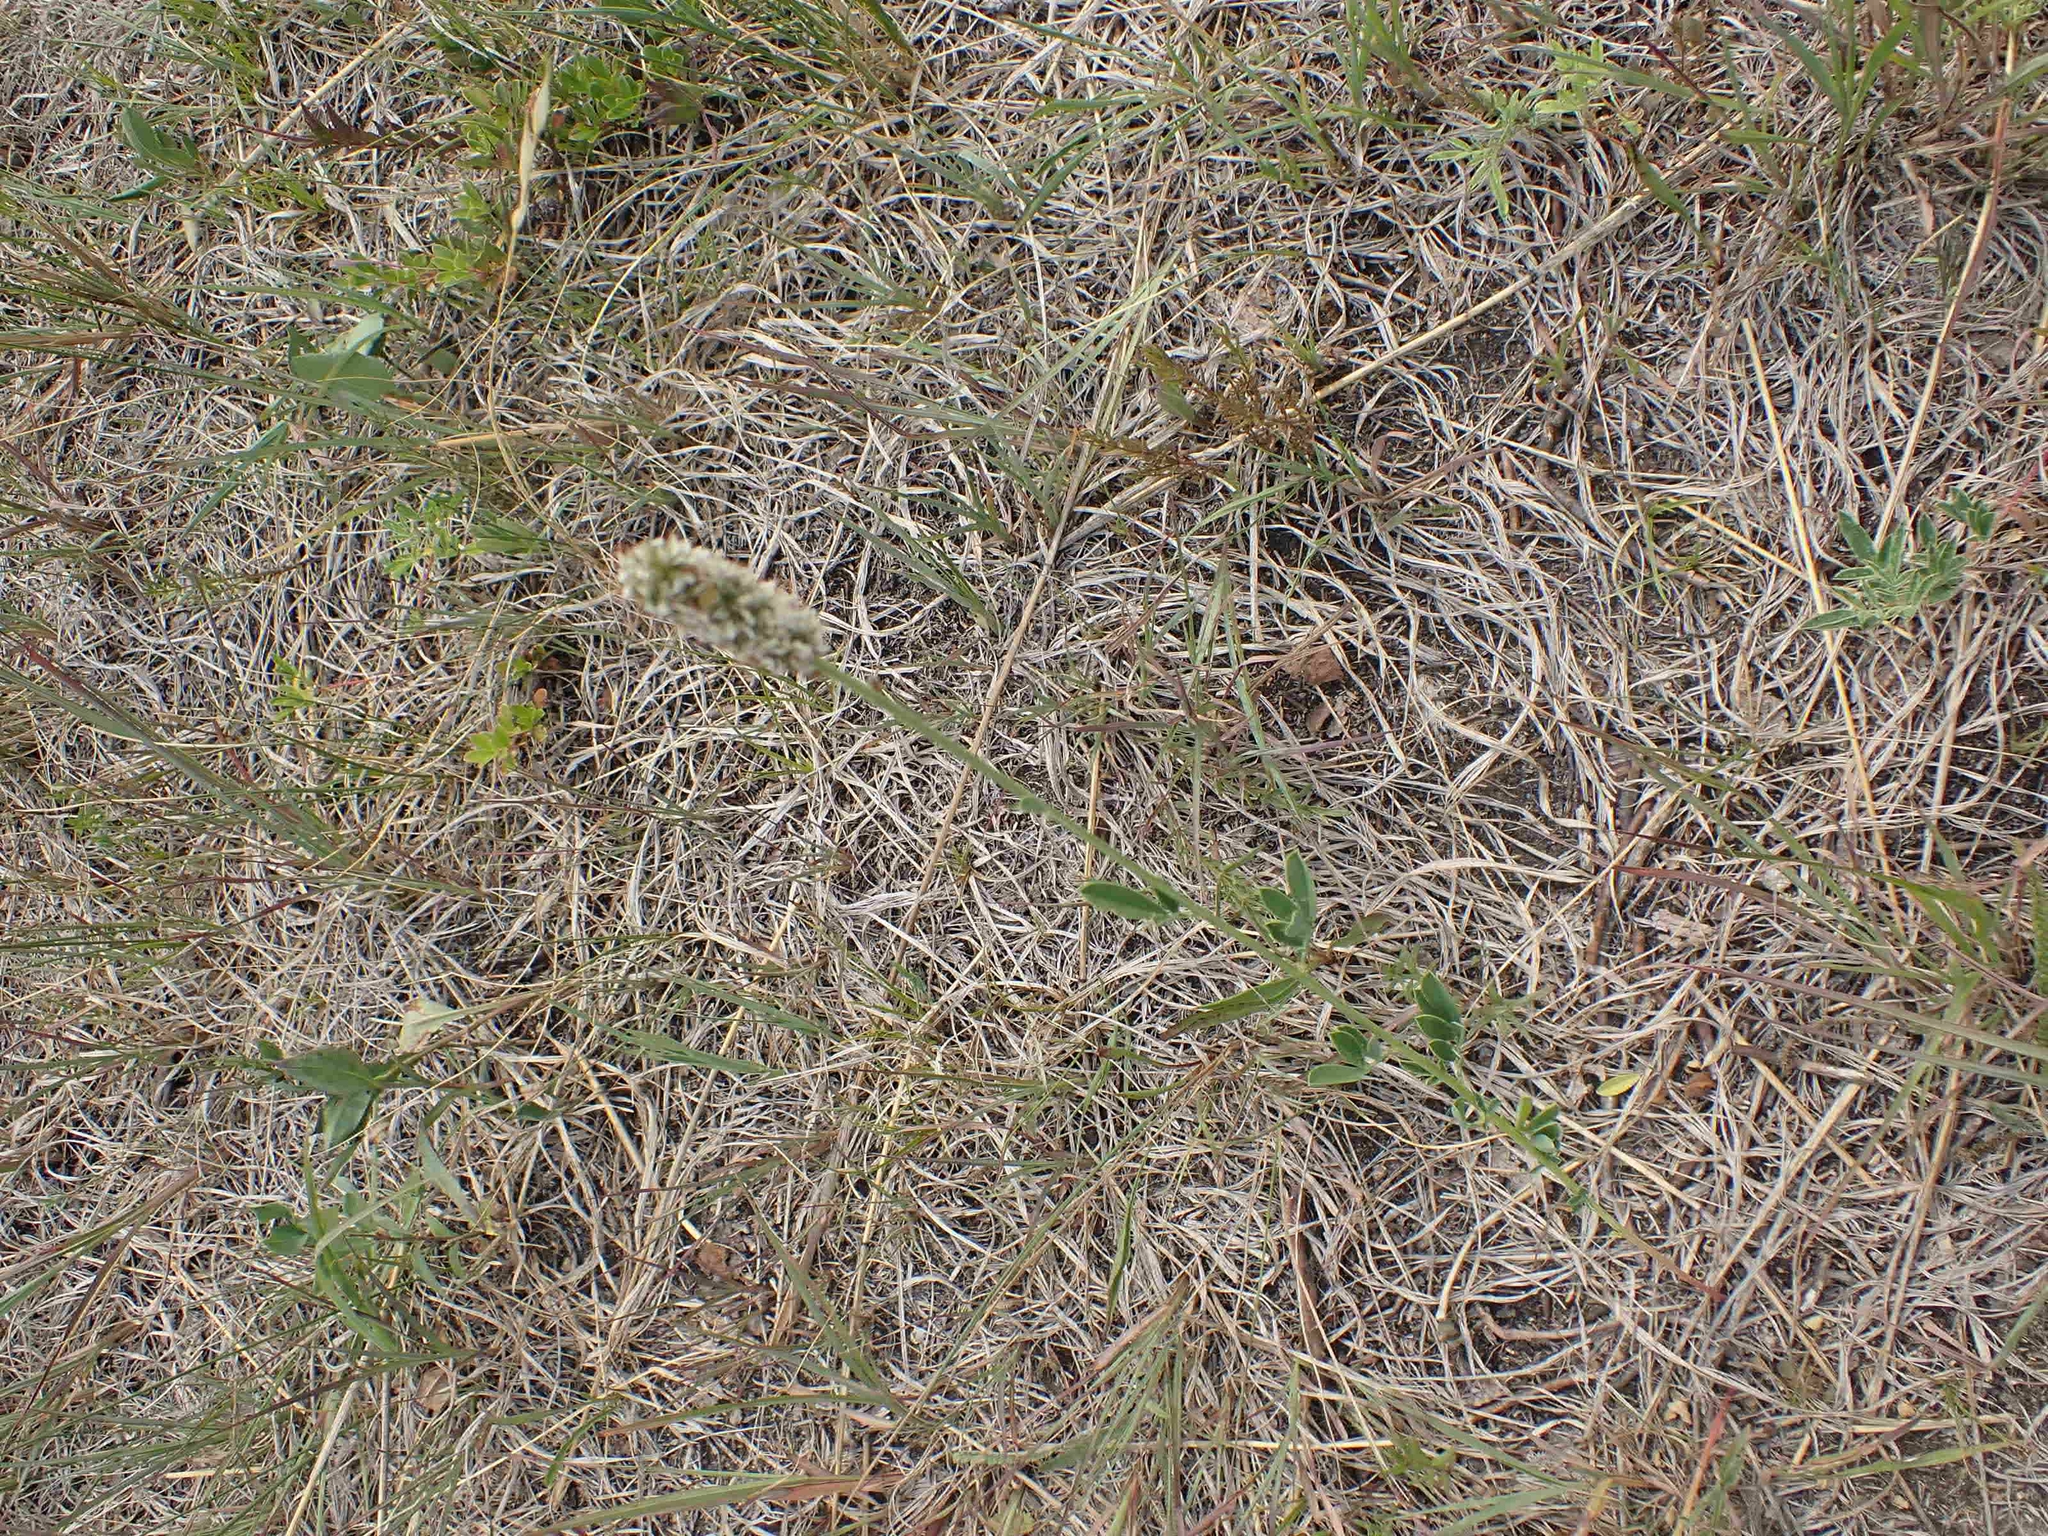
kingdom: Plantae
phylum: Tracheophyta
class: Magnoliopsida
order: Fabales
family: Fabaceae
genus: Dalea
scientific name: Dalea candida
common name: White prairie-clover
